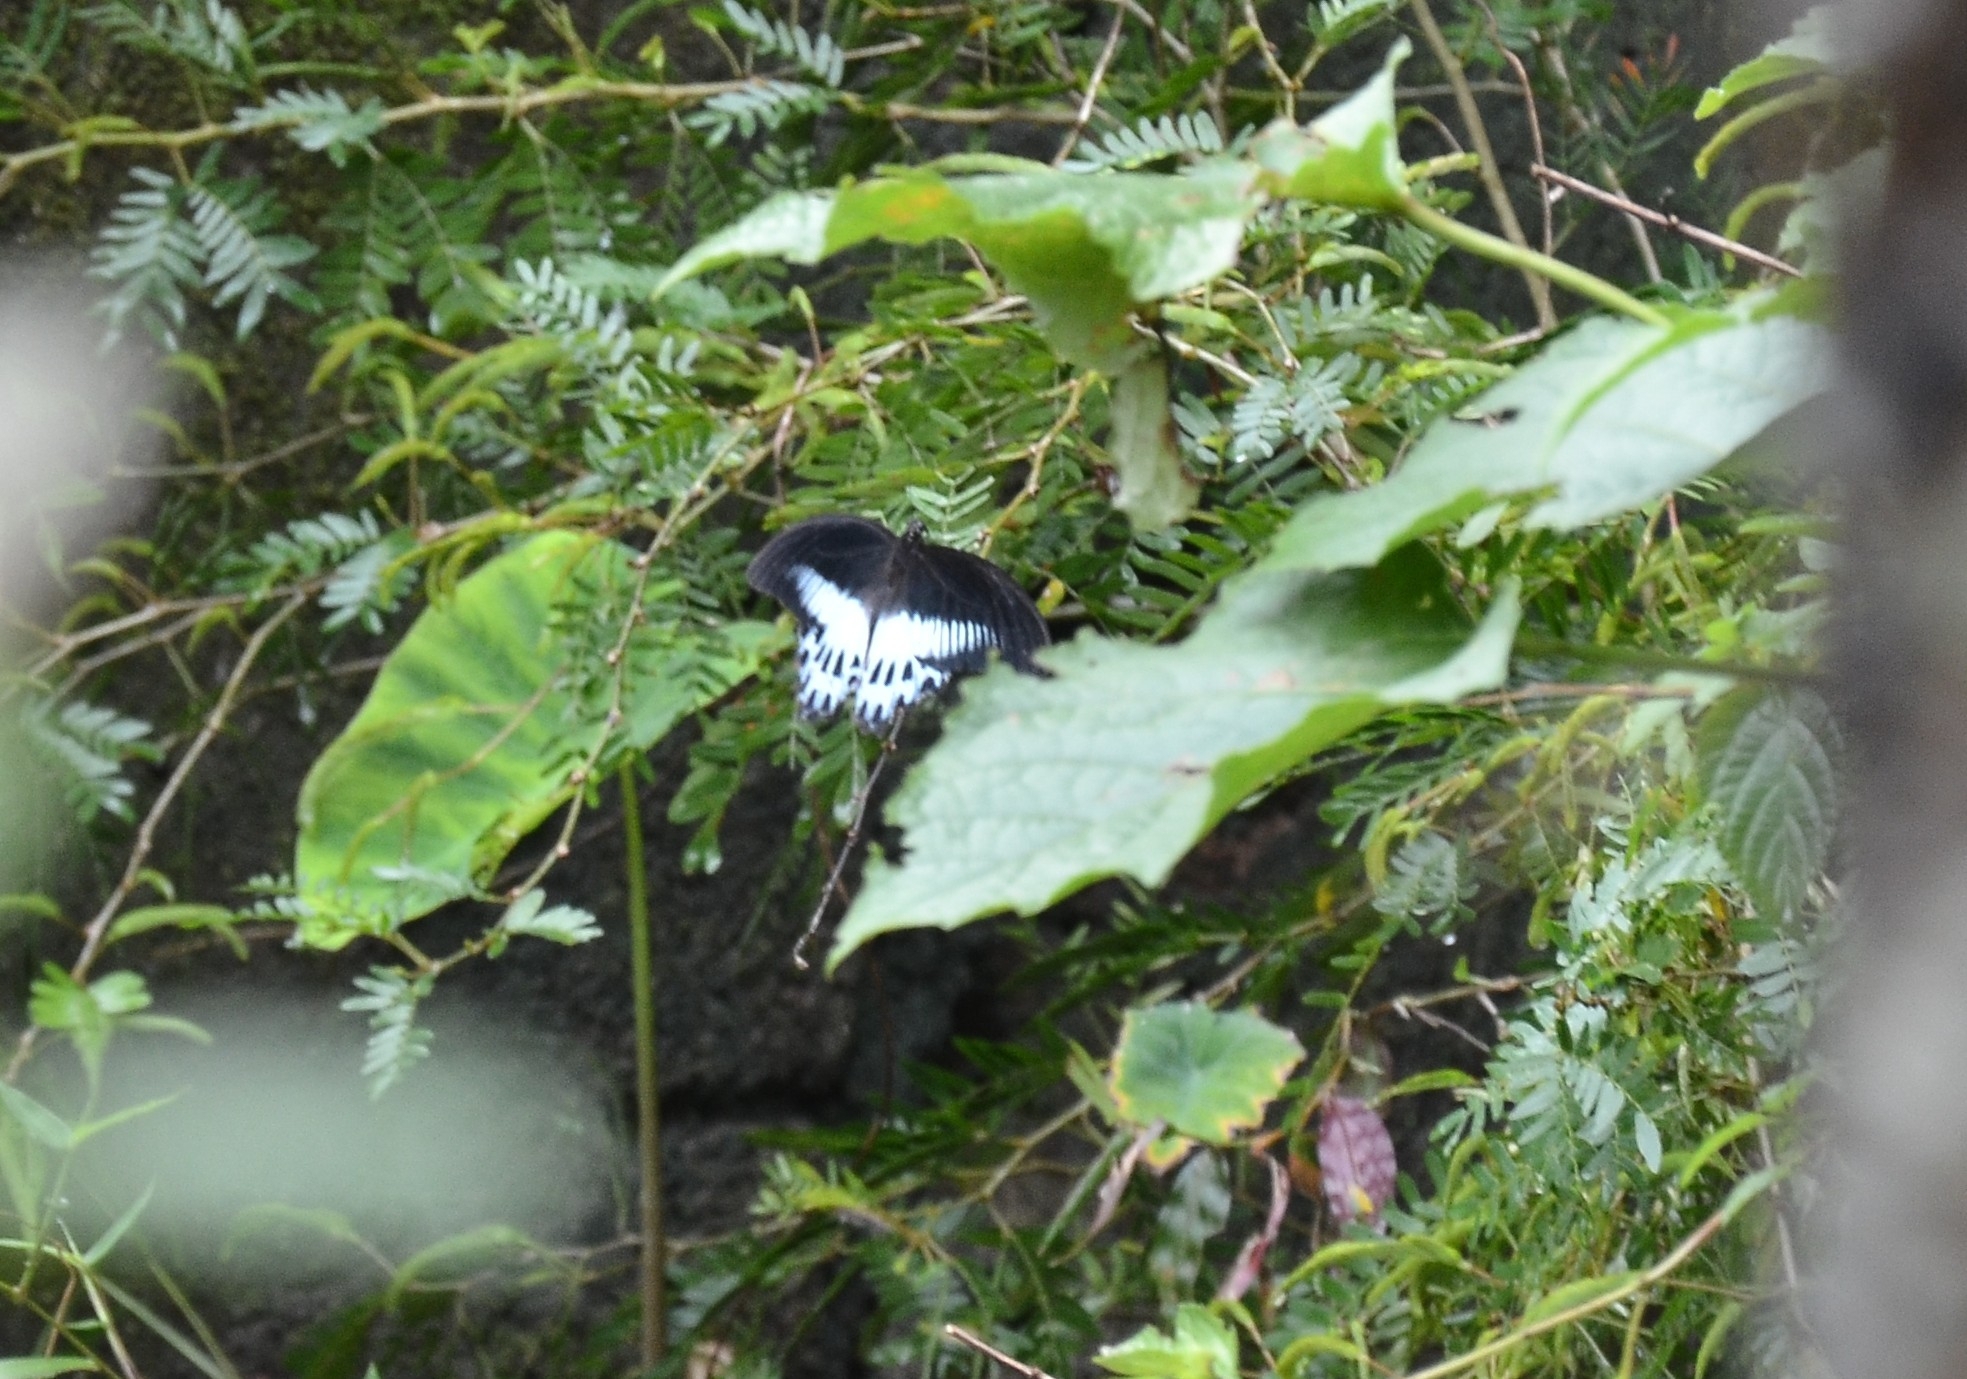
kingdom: Animalia
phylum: Arthropoda
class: Insecta
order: Lepidoptera
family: Papilionidae
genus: Papilio
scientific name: Papilio memnon
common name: Great mormon
